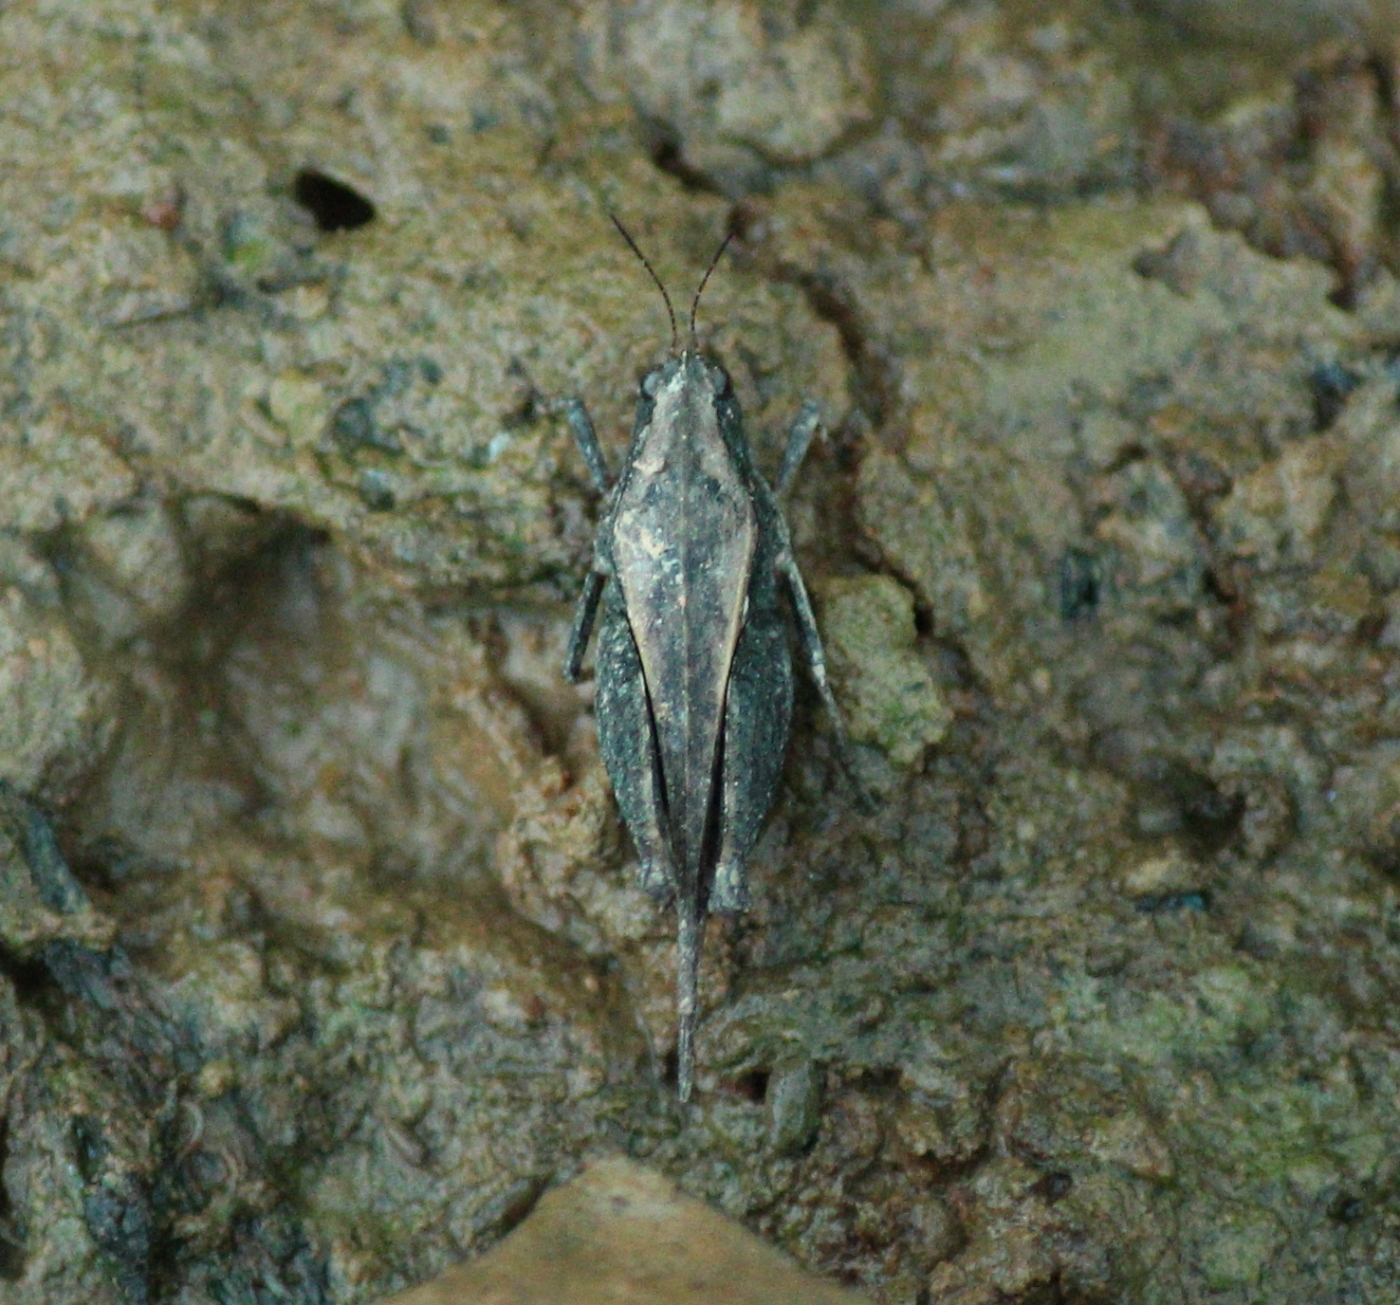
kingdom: Animalia
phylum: Arthropoda
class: Insecta
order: Orthoptera
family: Tetrigidae
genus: Tettigidea
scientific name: Tettigidea laterale
